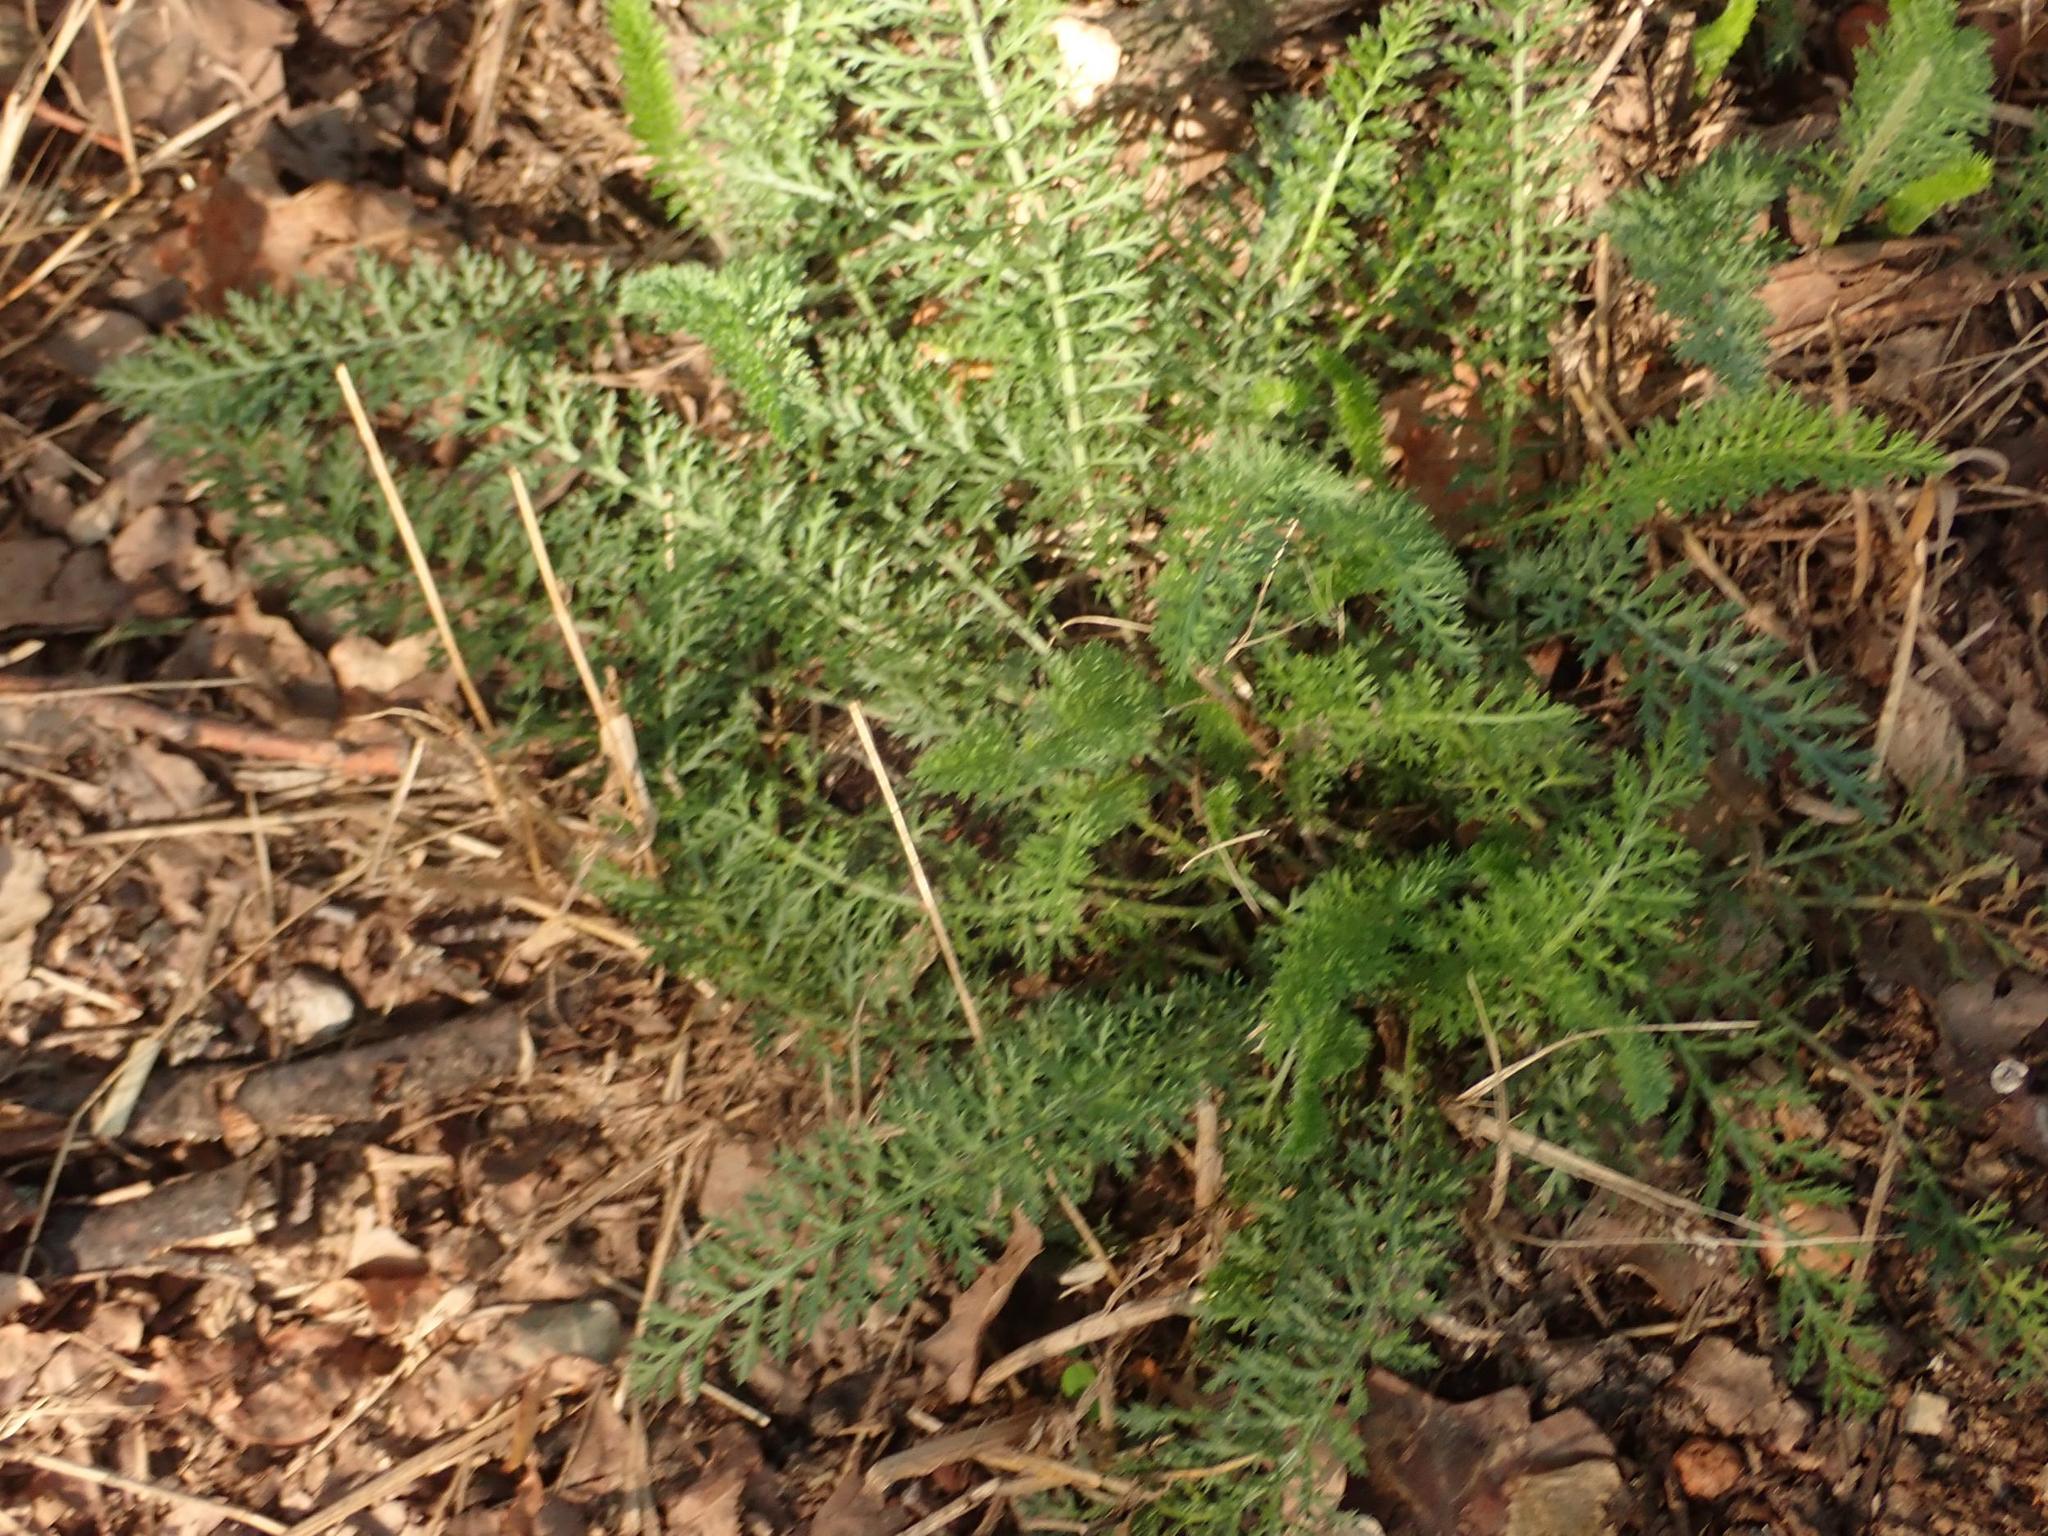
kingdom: Plantae
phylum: Tracheophyta
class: Magnoliopsida
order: Asterales
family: Asteraceae
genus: Achillea
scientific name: Achillea millefolium
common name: Yarrow
